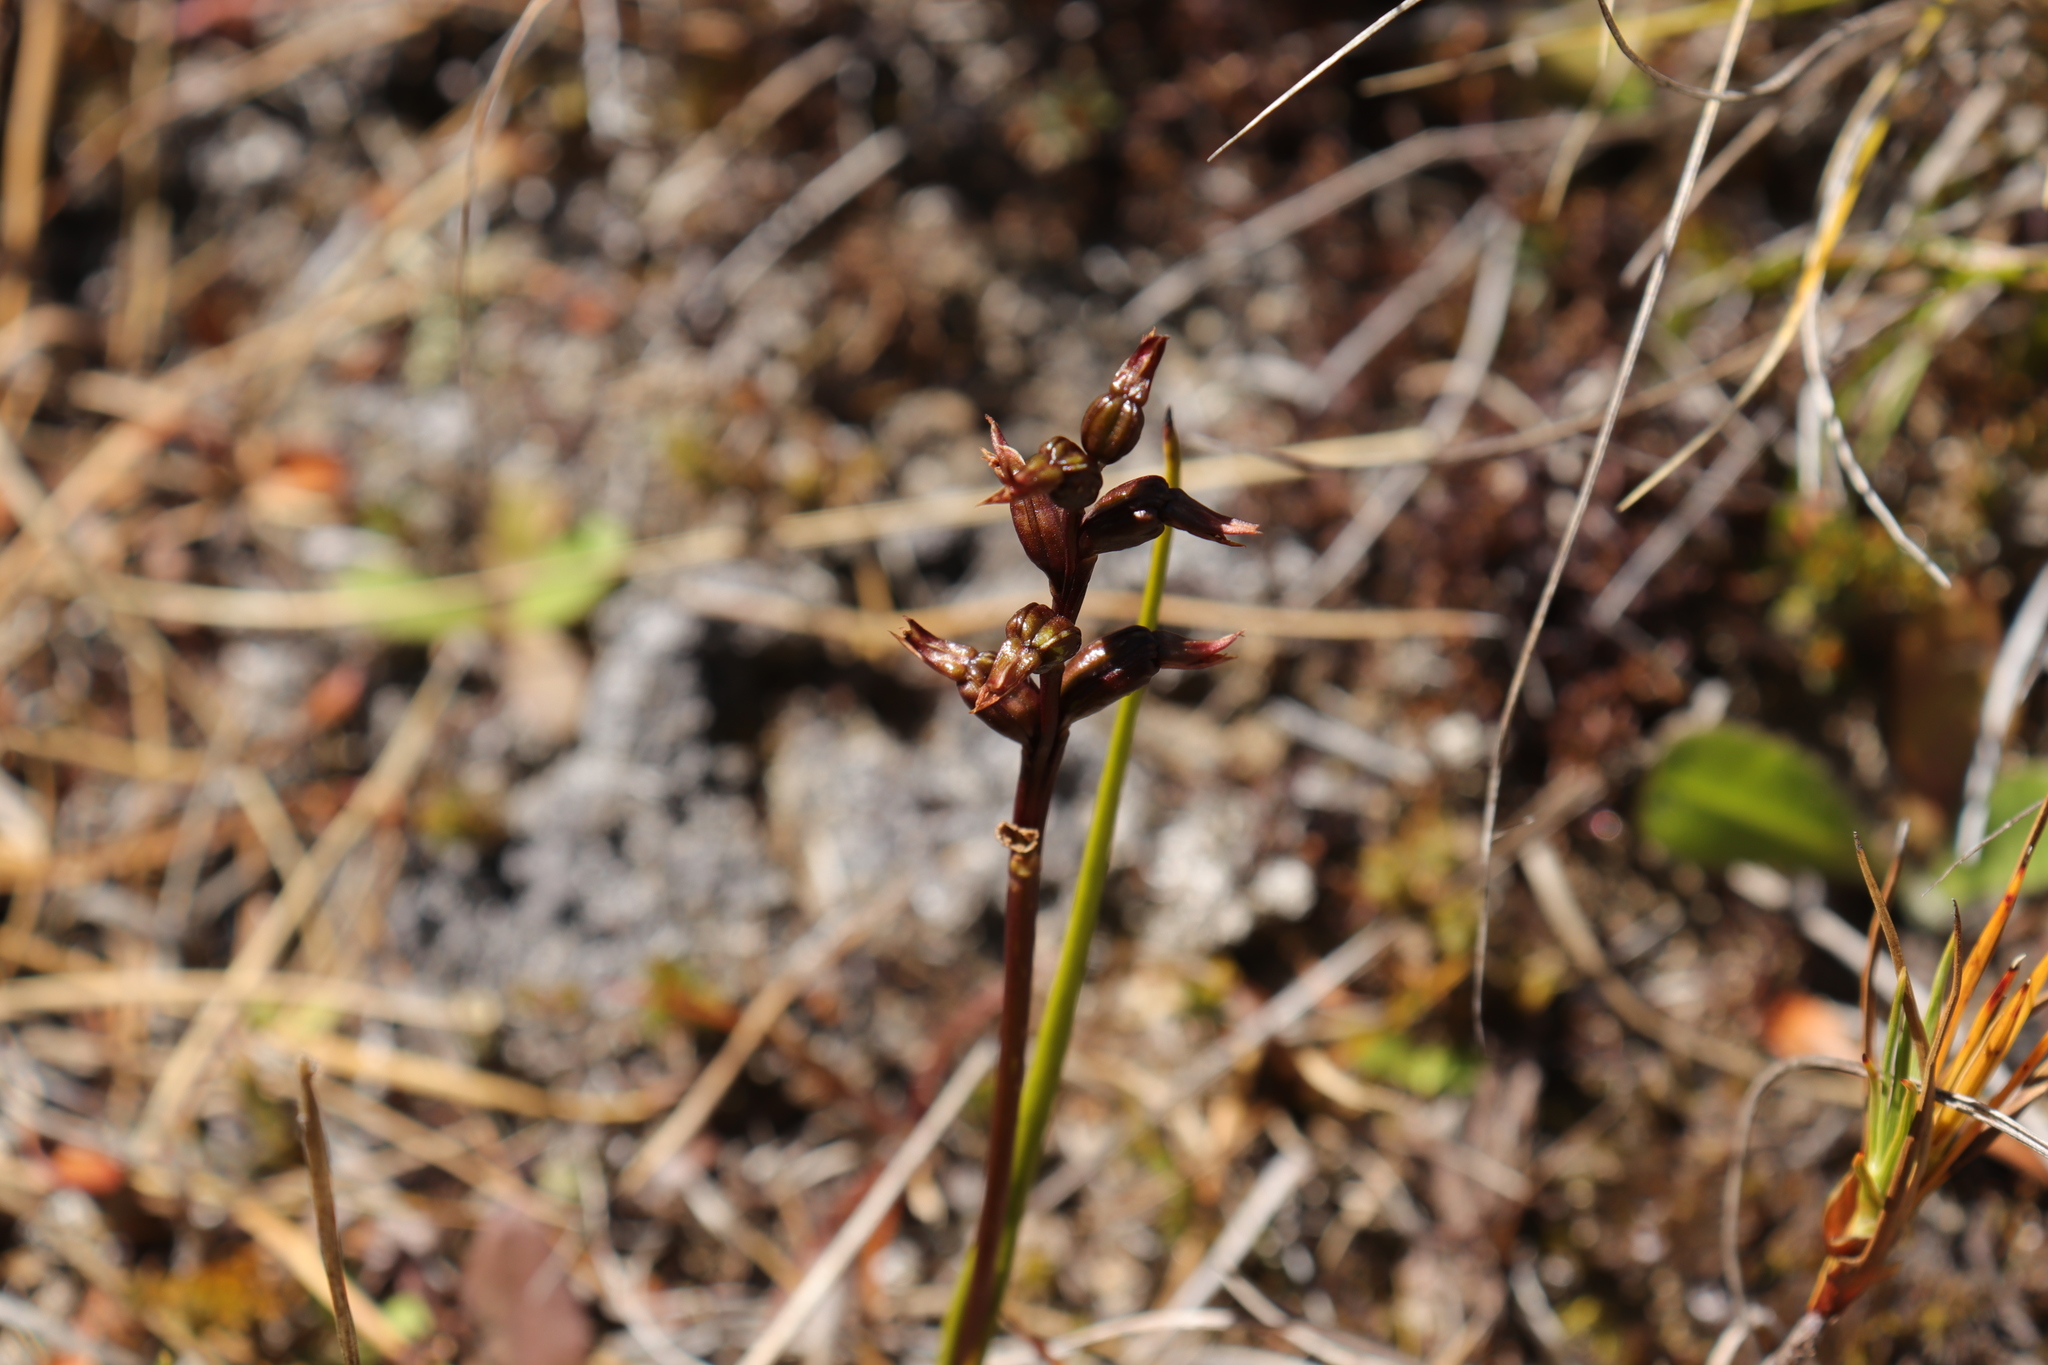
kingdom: Plantae
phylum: Tracheophyta
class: Liliopsida
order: Asparagales
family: Orchidaceae
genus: Prasophyllum
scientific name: Prasophyllum colensoi
